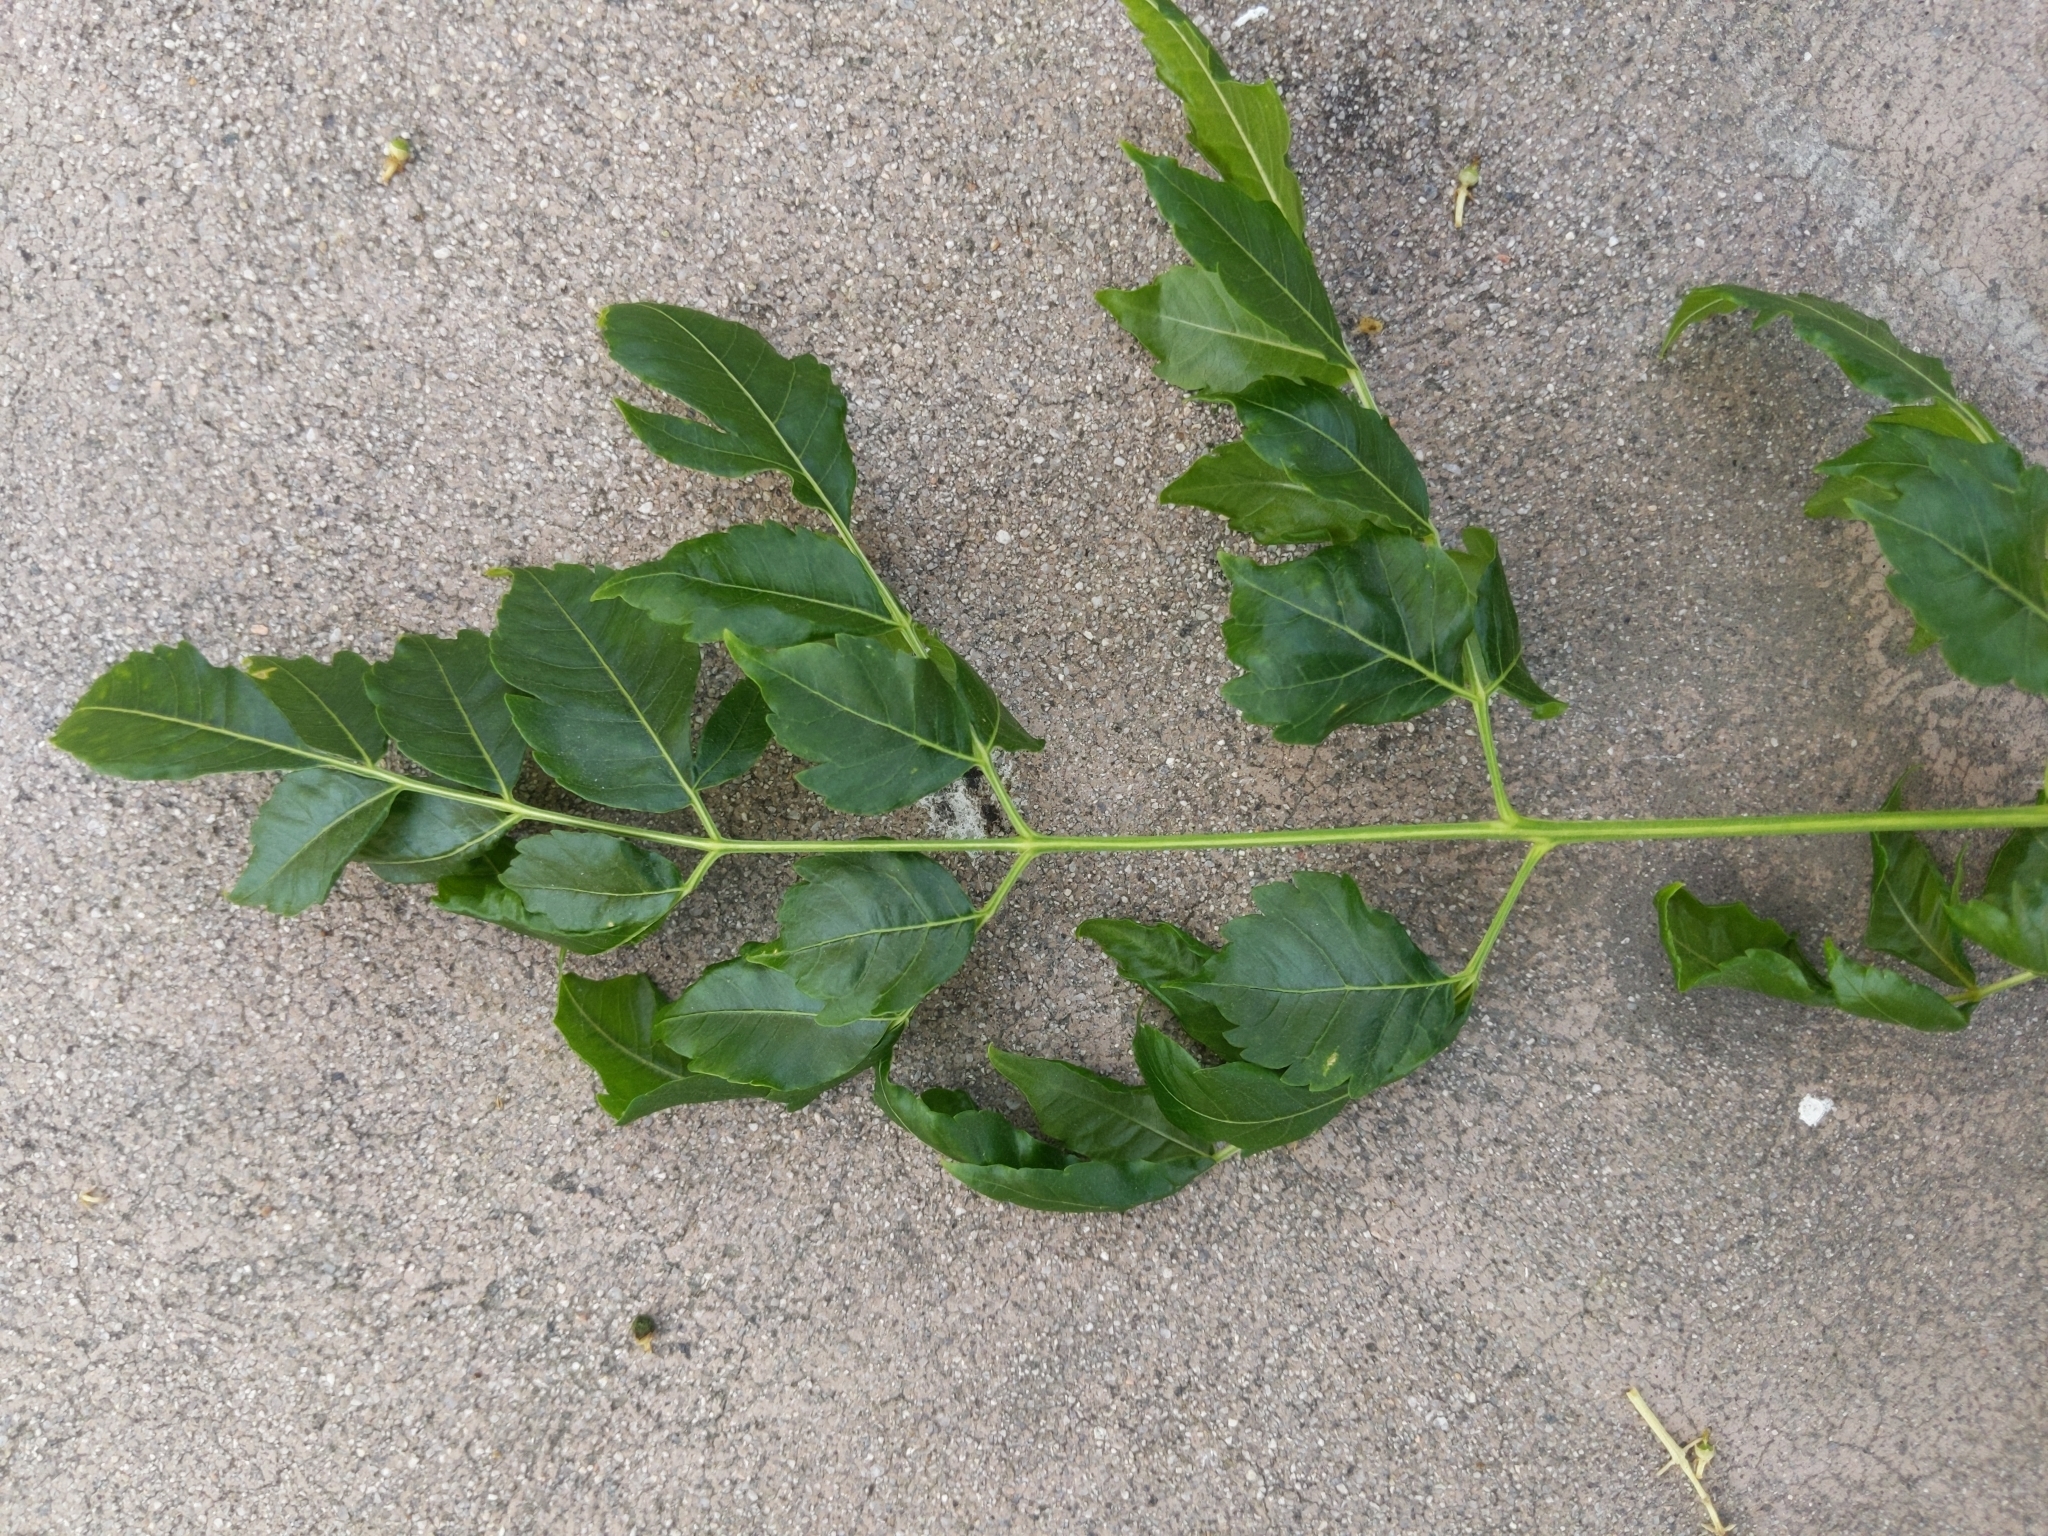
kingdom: Plantae
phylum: Tracheophyta
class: Magnoliopsida
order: Sapindales
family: Meliaceae
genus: Melia
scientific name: Melia azedarach
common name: Chinaberrytree
